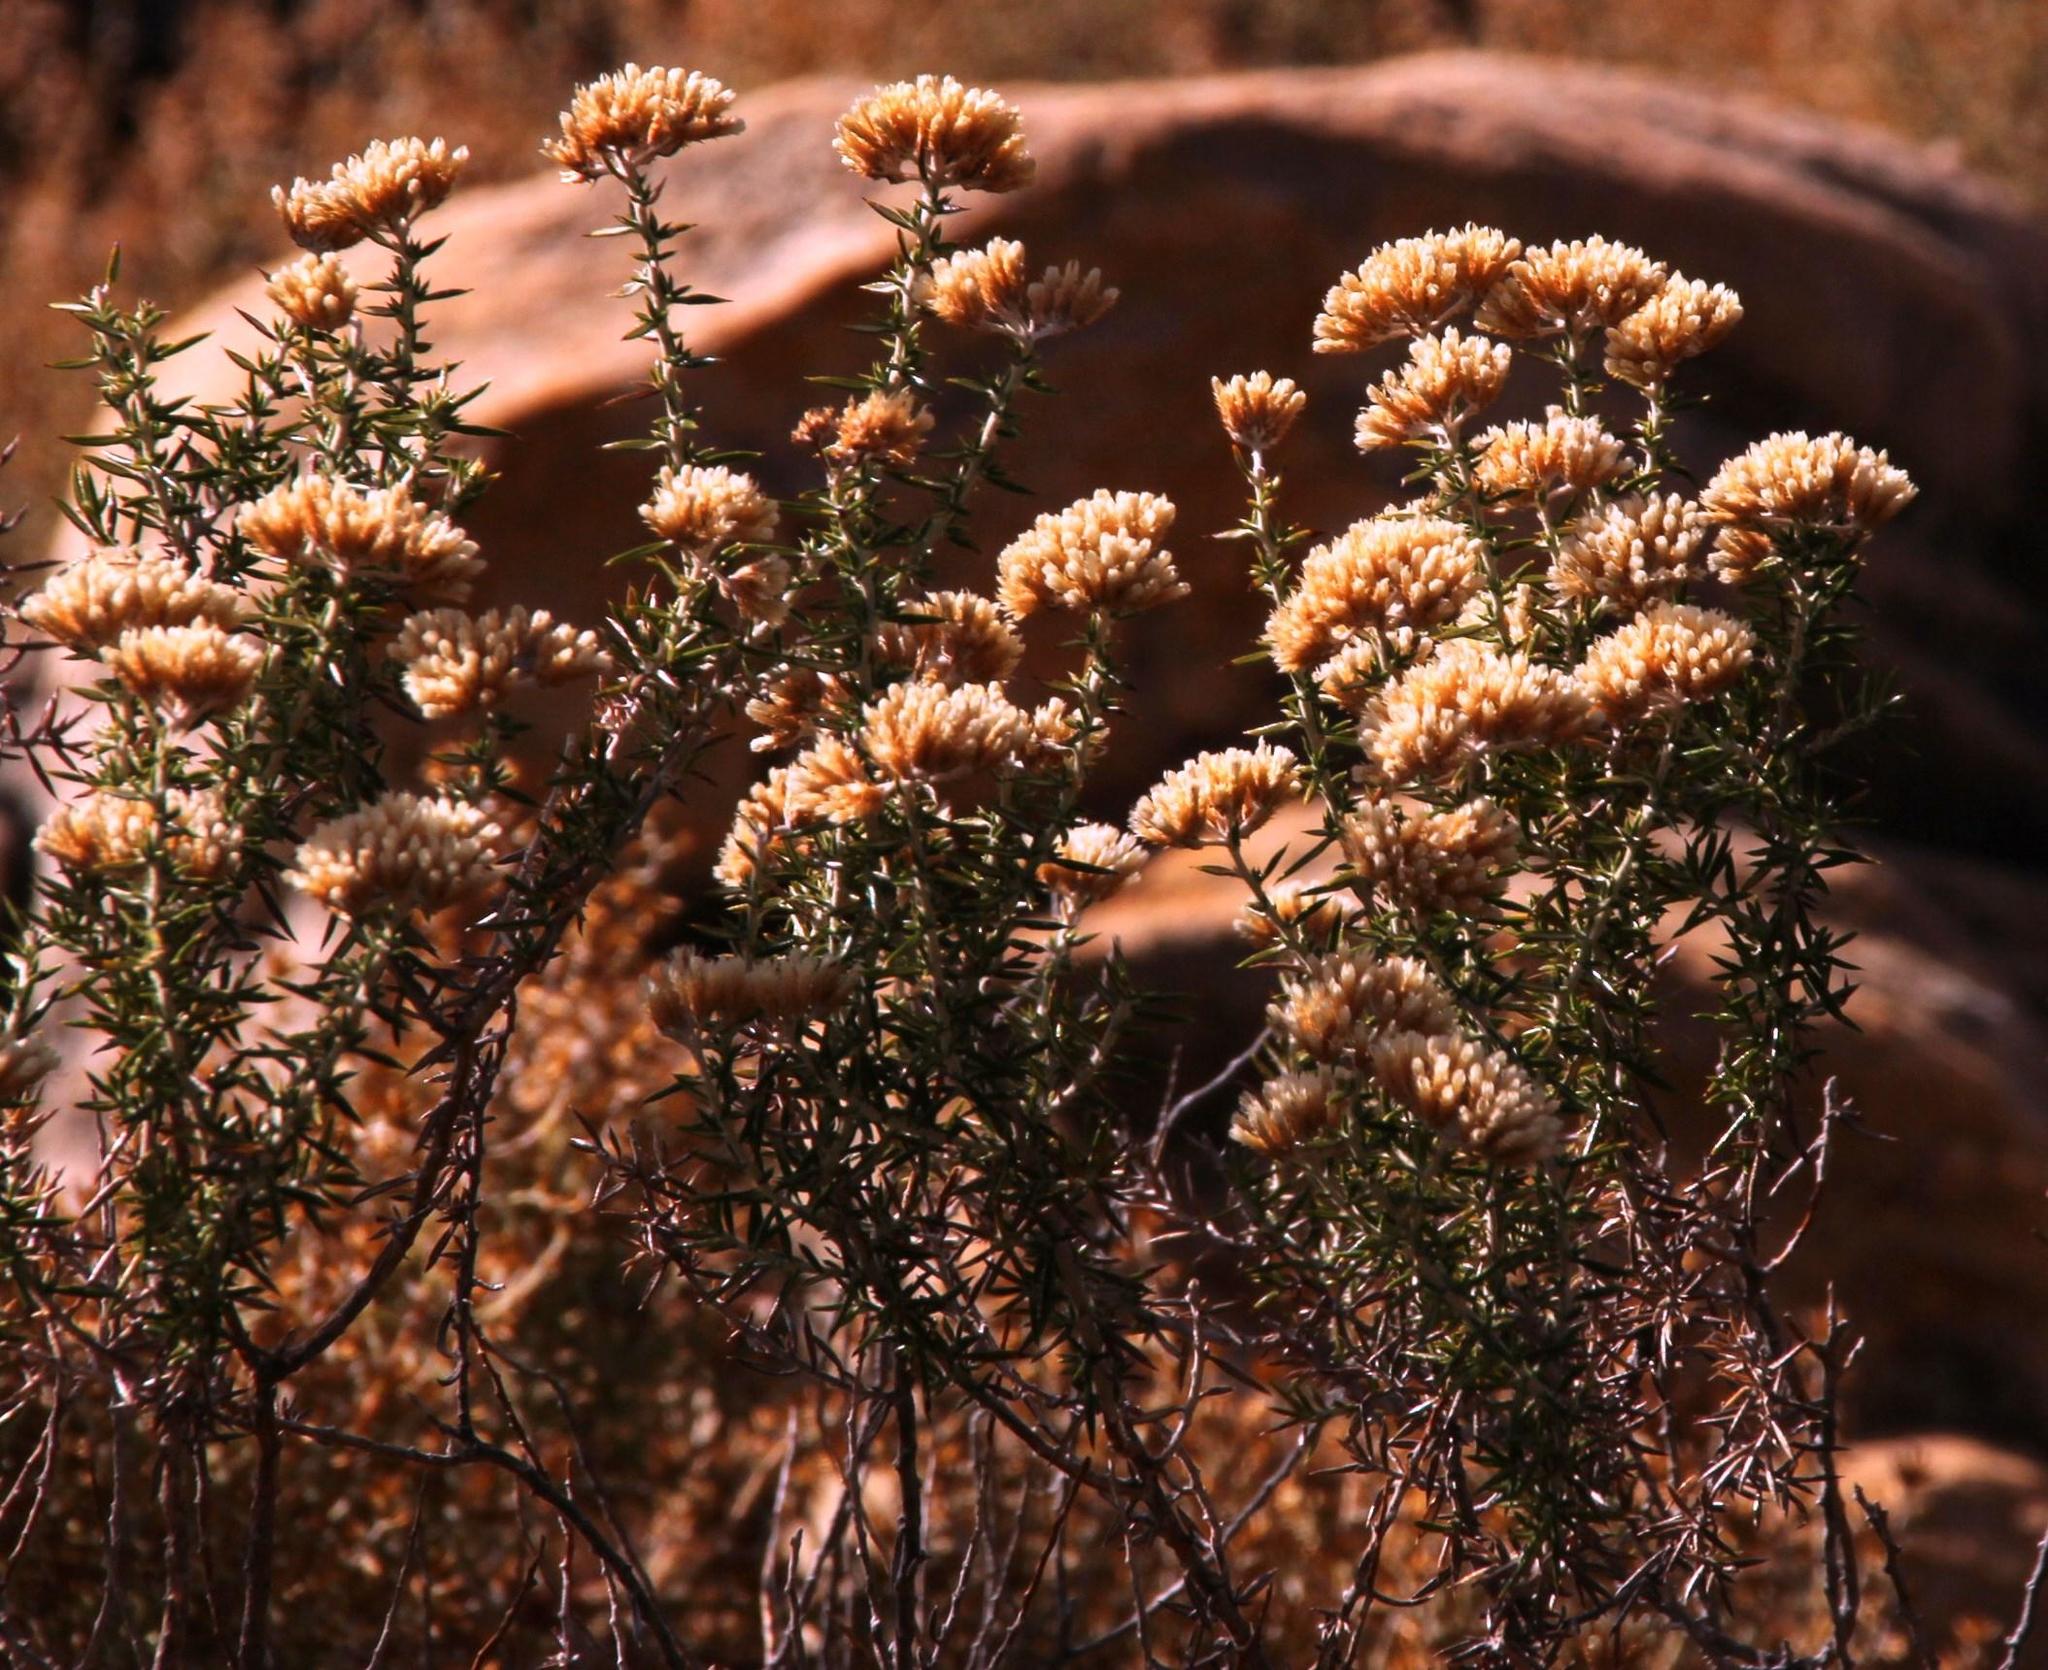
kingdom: Plantae
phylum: Tracheophyta
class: Magnoliopsida
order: Asterales
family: Asteraceae
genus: Metalasia
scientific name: Metalasia densa
